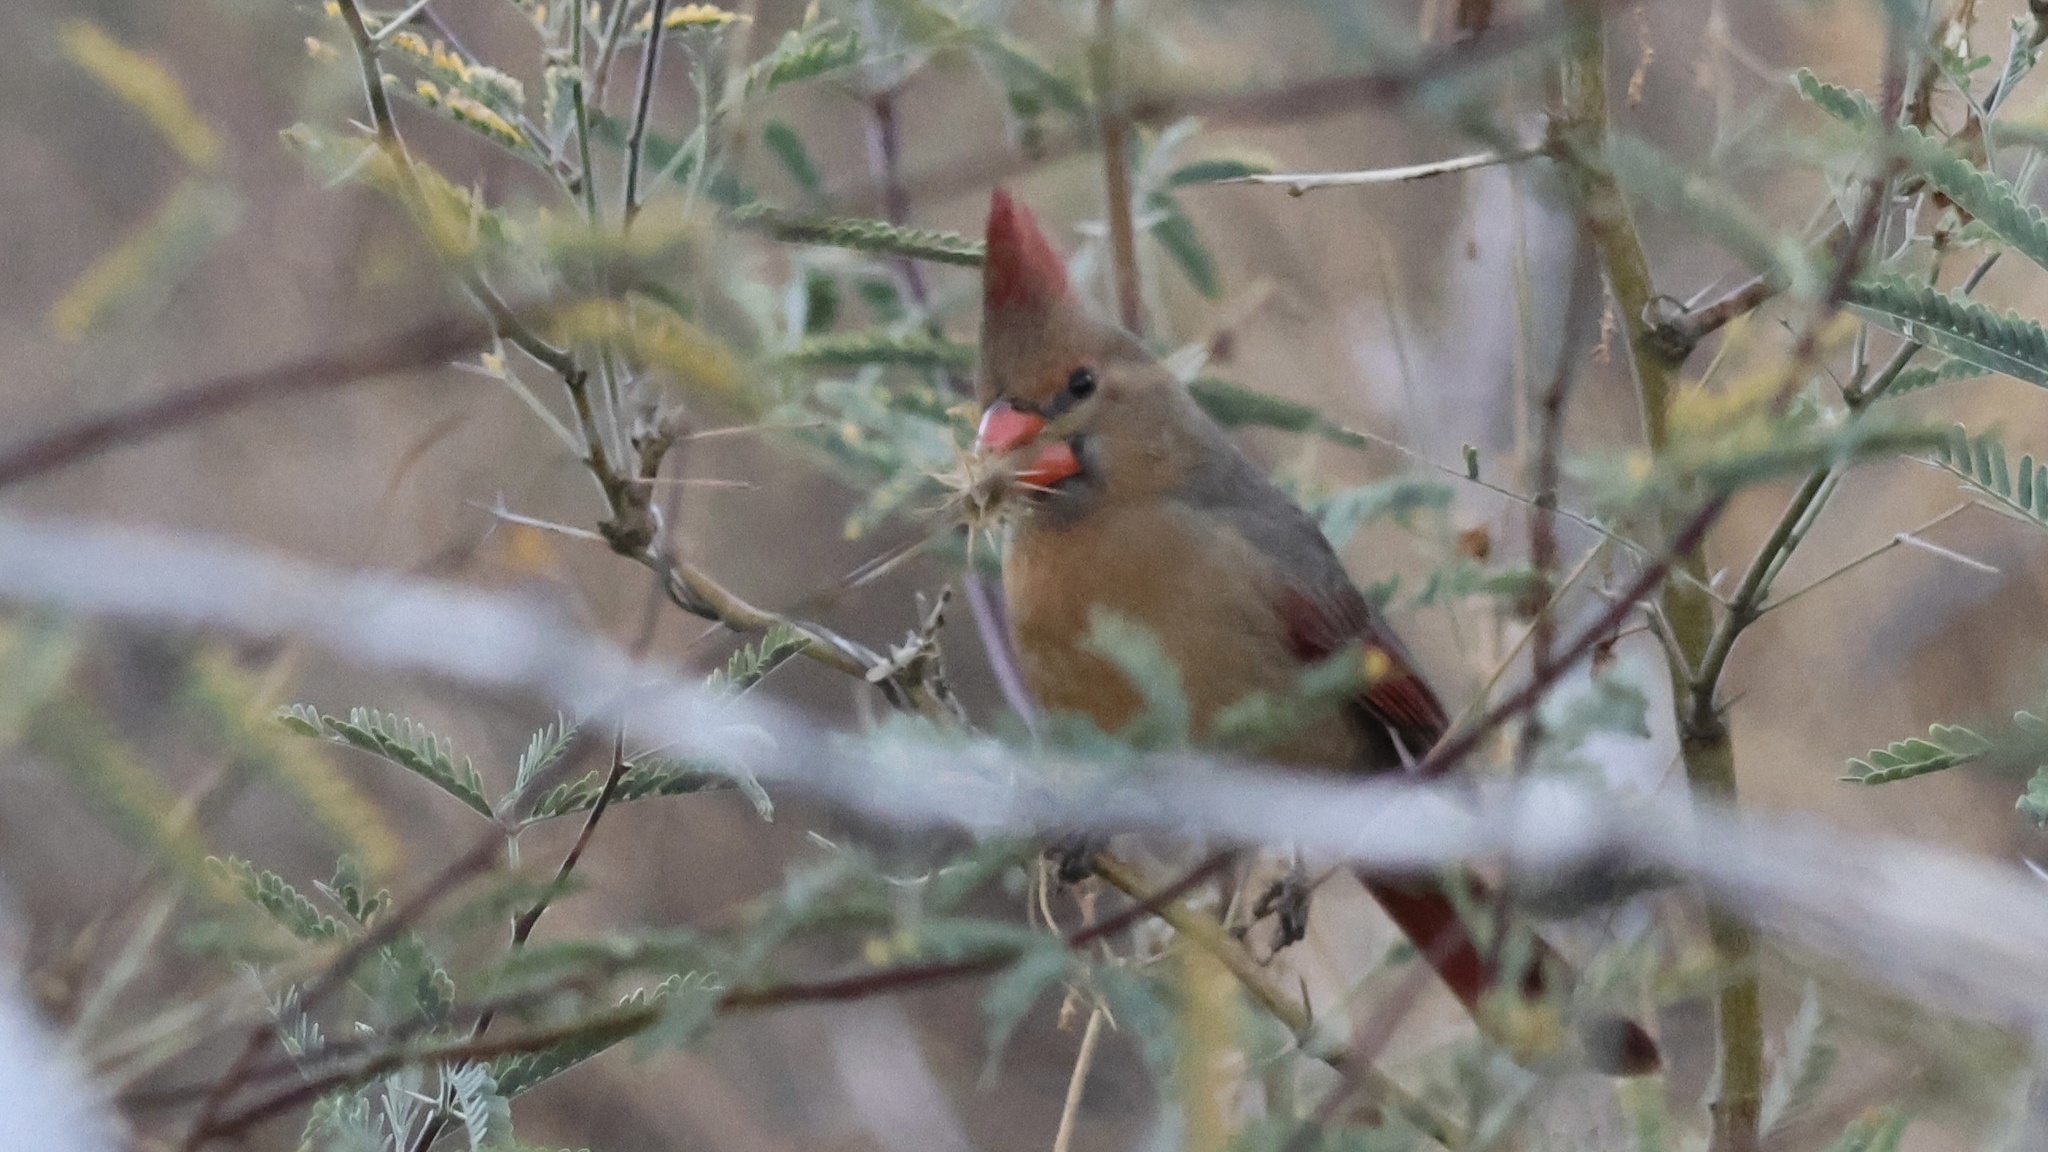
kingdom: Animalia
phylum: Chordata
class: Aves
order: Passeriformes
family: Cardinalidae
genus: Cardinalis
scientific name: Cardinalis cardinalis
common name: Northern cardinal
